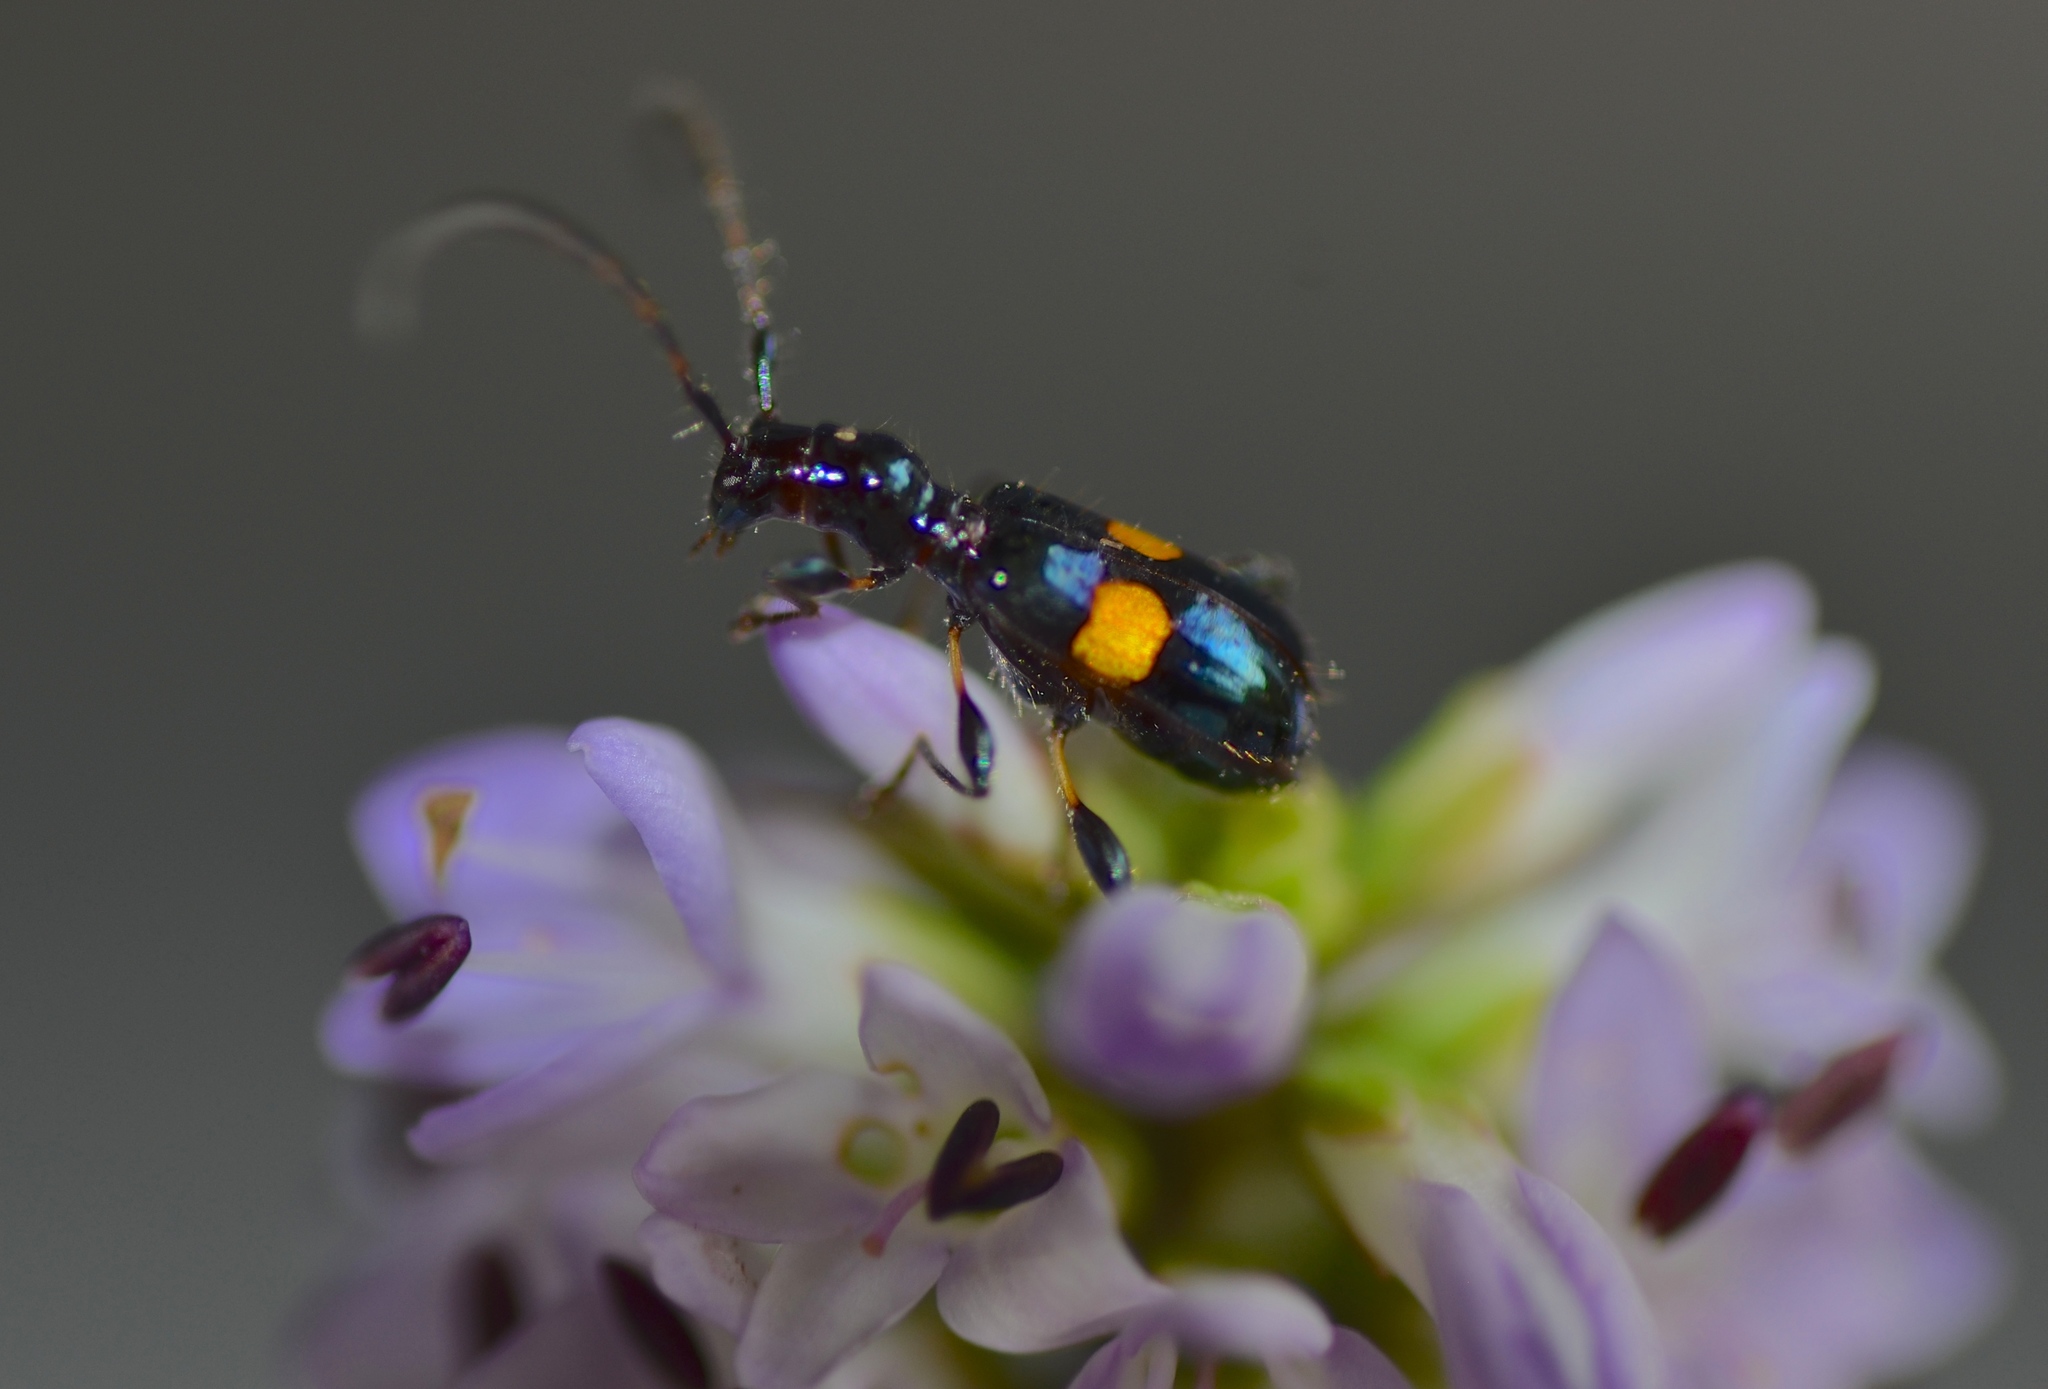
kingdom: Animalia
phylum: Arthropoda
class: Insecta
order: Coleoptera
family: Cerambycidae
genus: Zorion
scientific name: Zorion guttigerum
